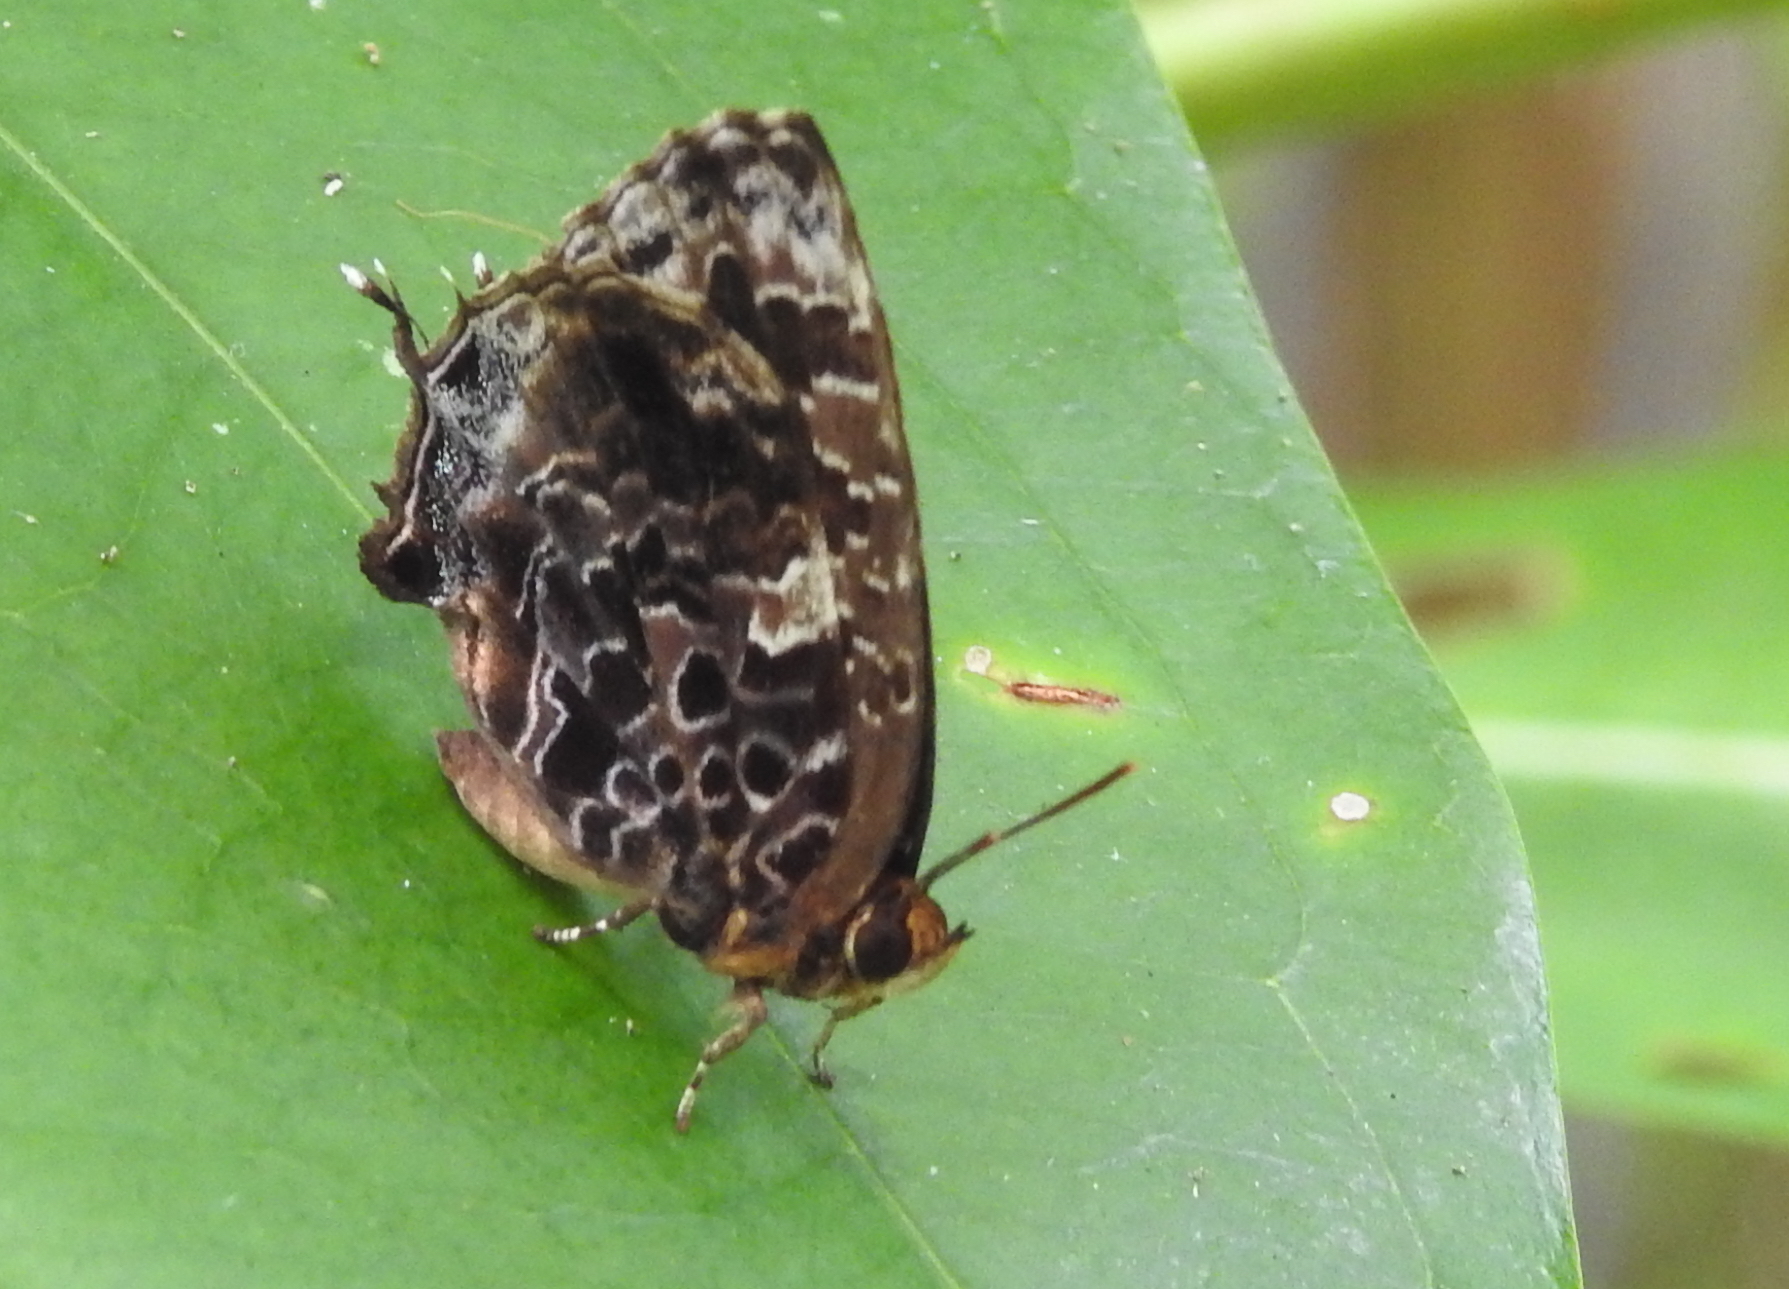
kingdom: Animalia
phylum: Arthropoda
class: Insecta
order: Lepidoptera
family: Lycaenidae
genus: Arhopala
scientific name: Arhopala abseus
